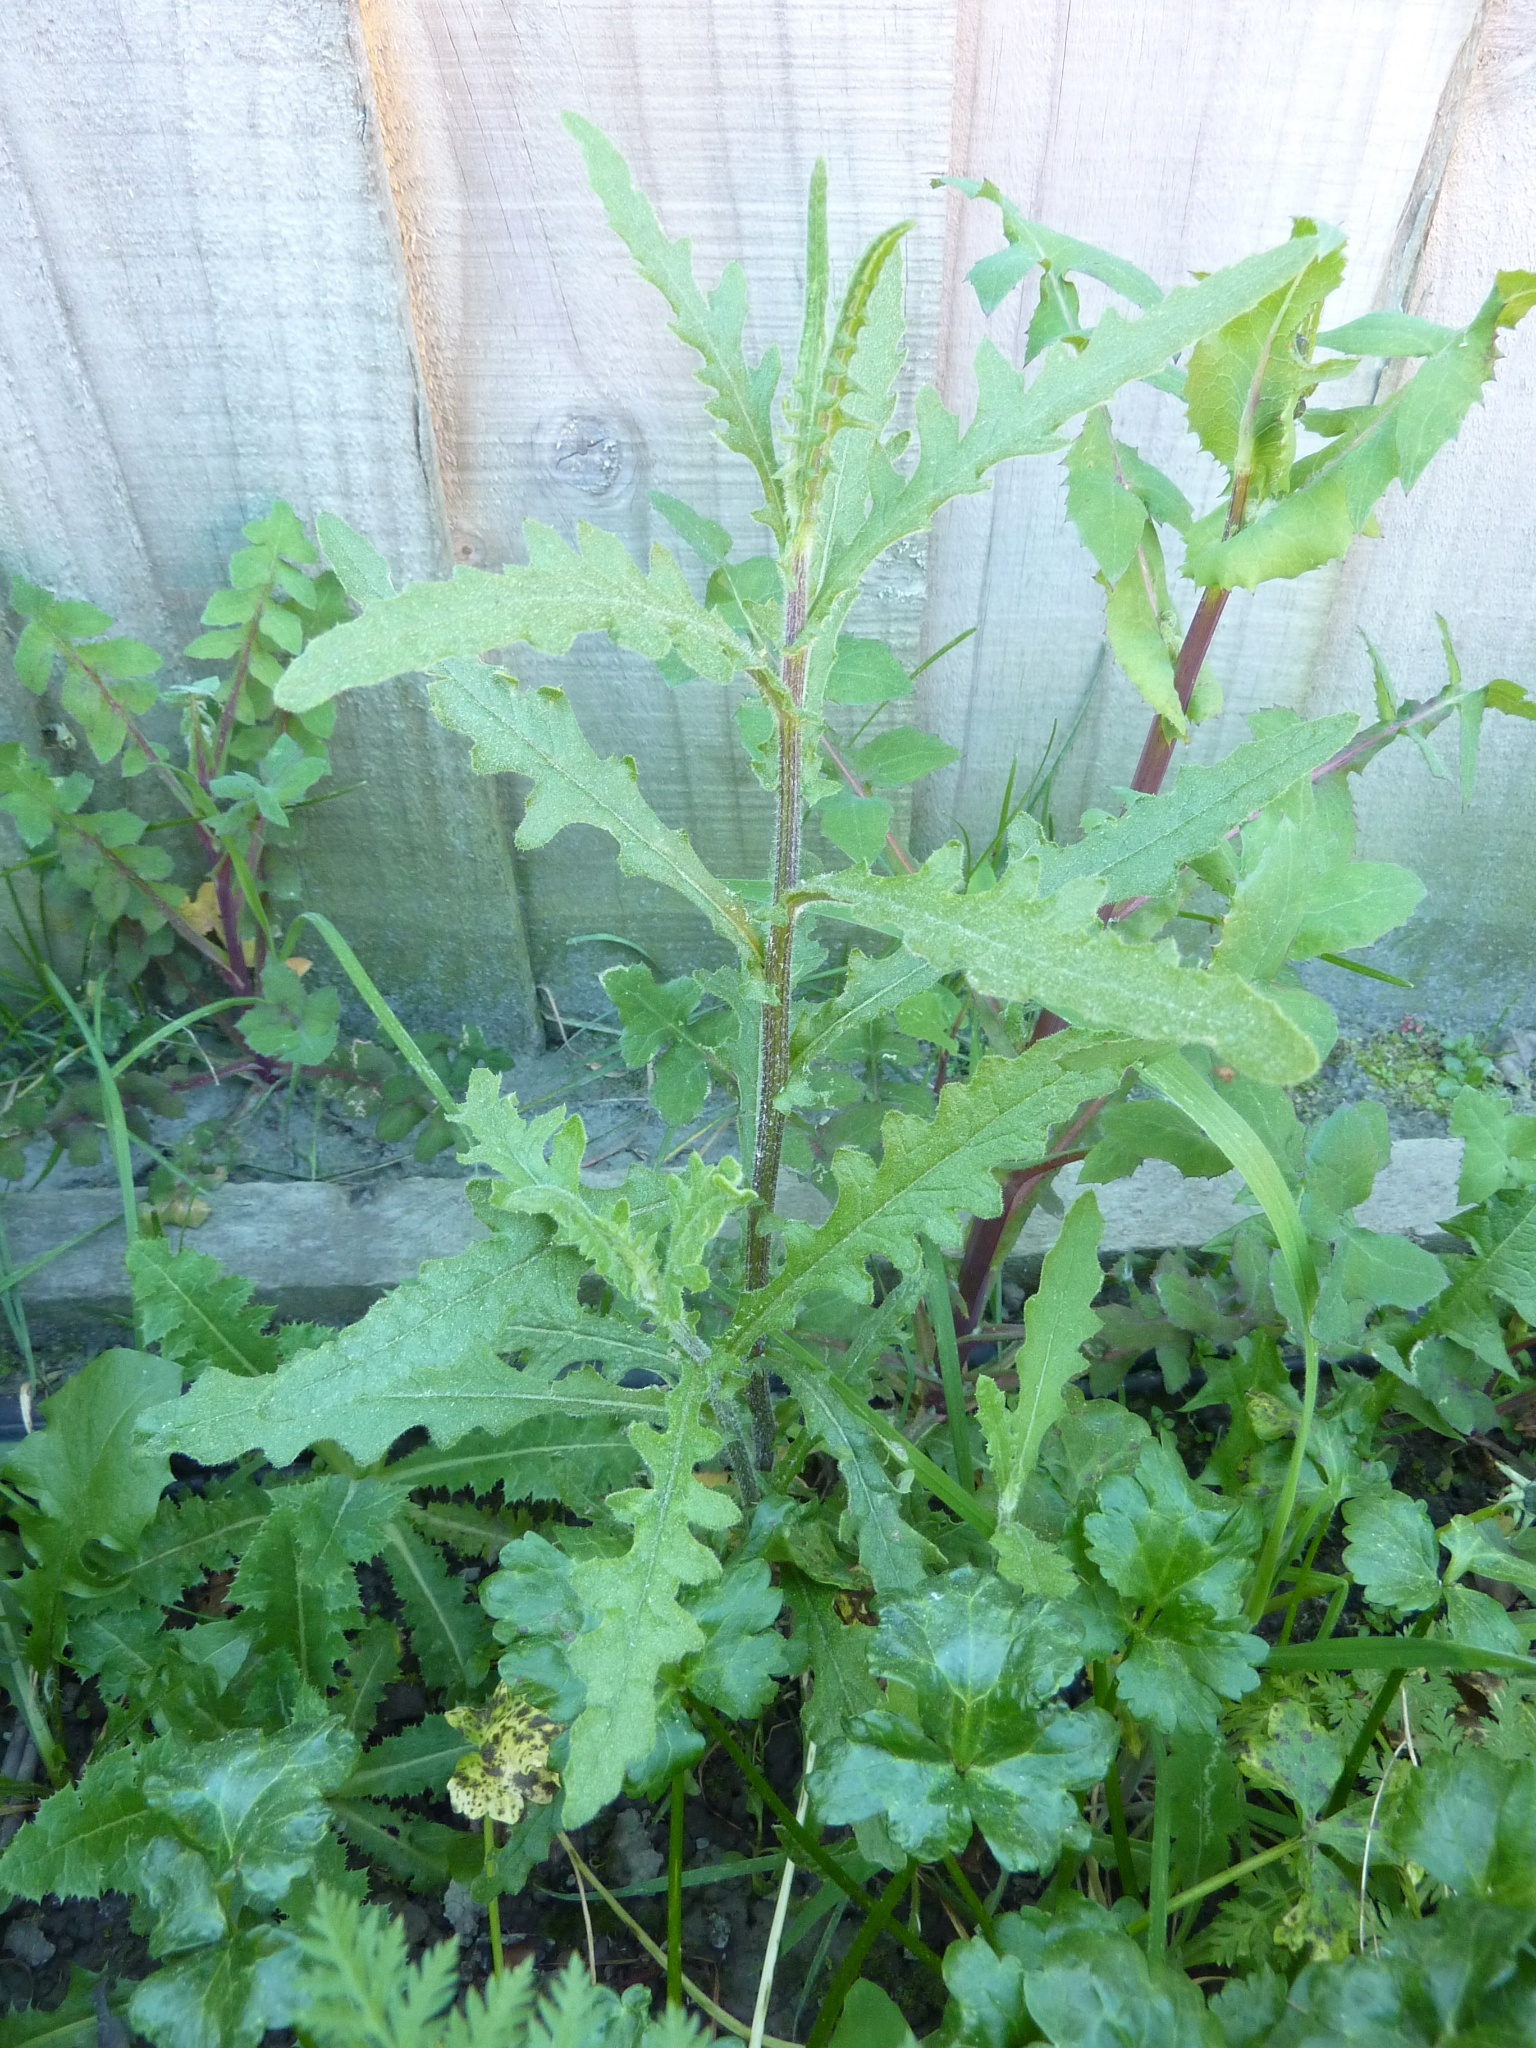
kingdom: Plantae
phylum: Tracheophyta
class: Magnoliopsida
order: Asterales
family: Asteraceae
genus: Senecio
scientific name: Senecio glomeratus
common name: Cutleaf burnweed
